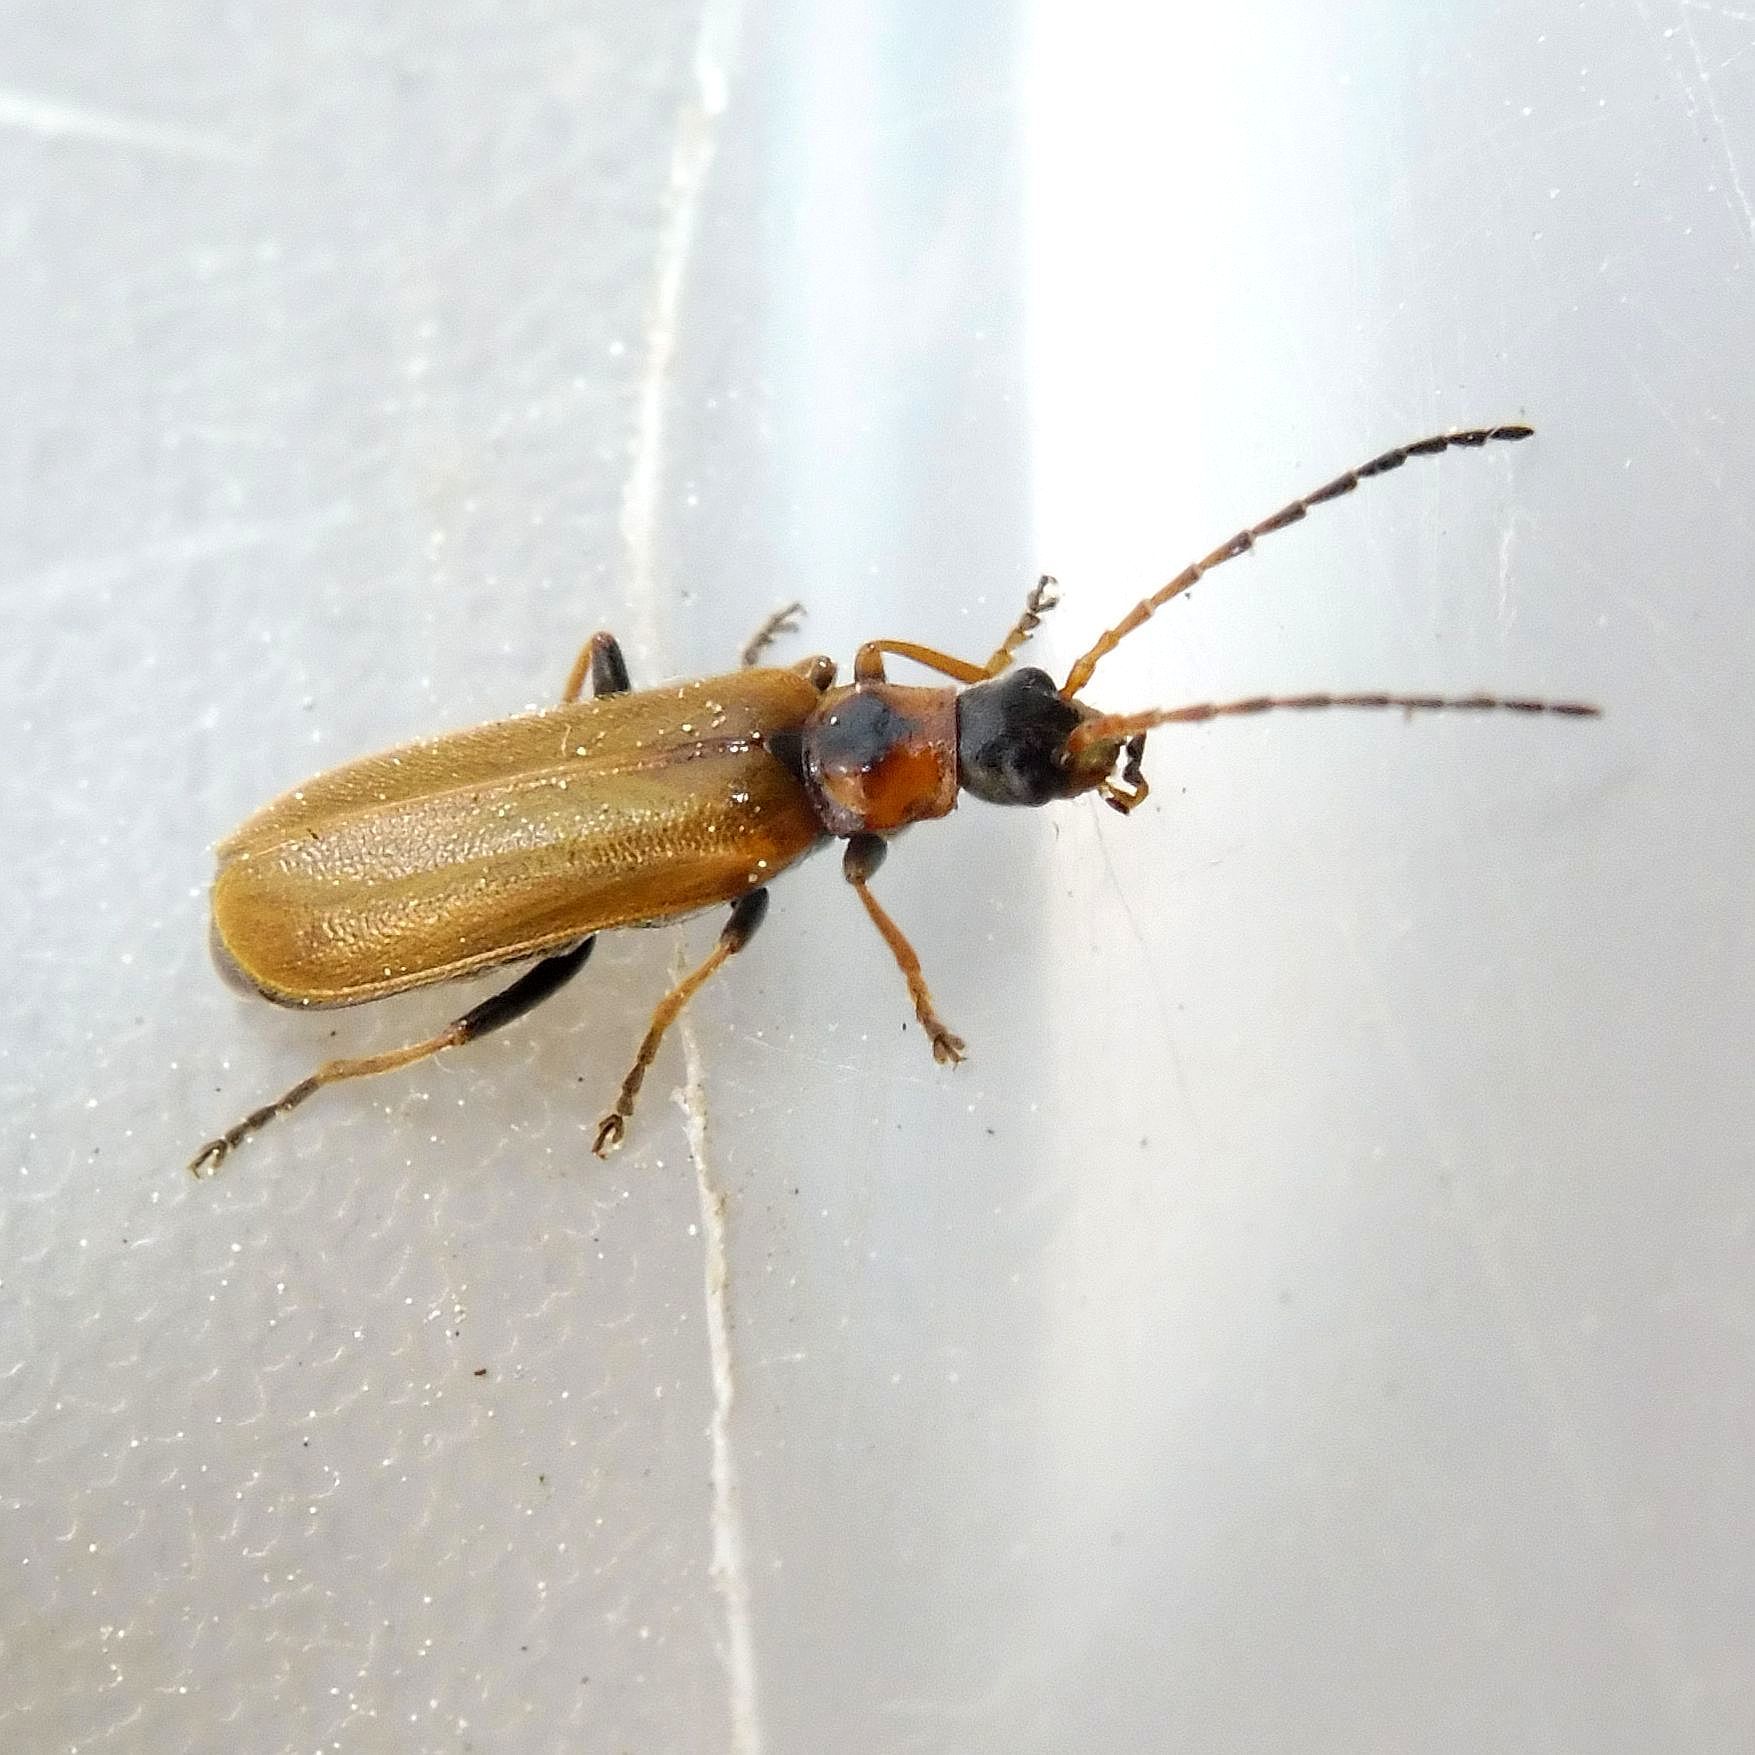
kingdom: Animalia
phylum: Arthropoda
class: Insecta
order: Coleoptera
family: Cantharidae
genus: Rhagonycha
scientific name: Rhagonycha nigriventris
